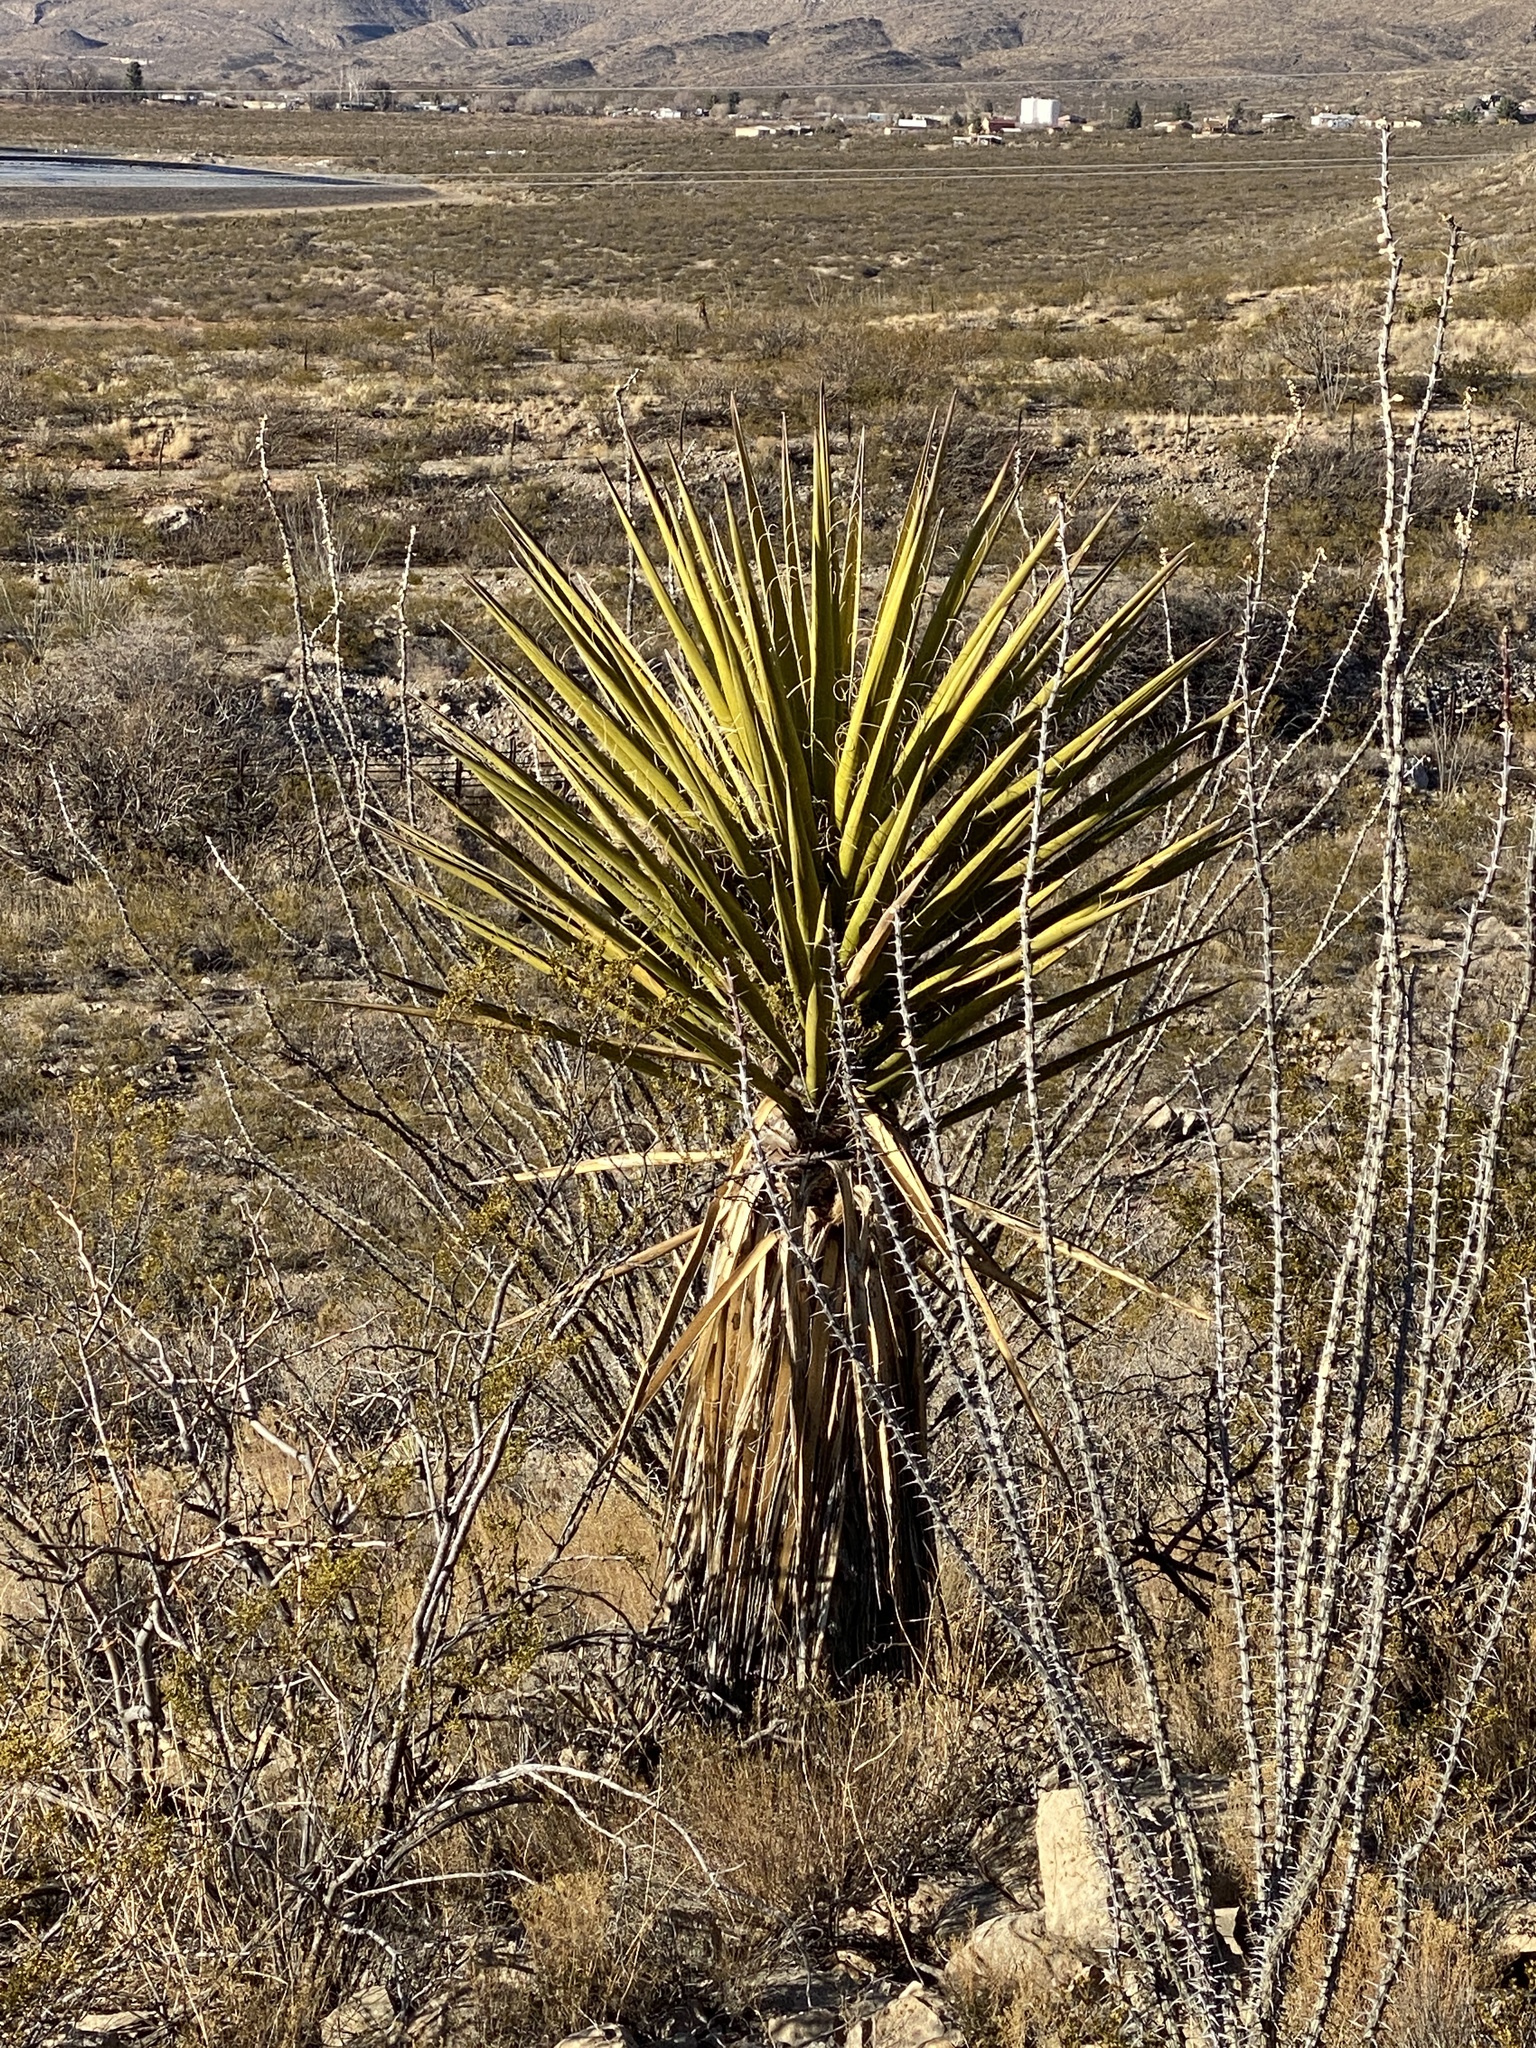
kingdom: Plantae
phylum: Tracheophyta
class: Liliopsida
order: Asparagales
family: Asparagaceae
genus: Yucca
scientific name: Yucca treculiana
